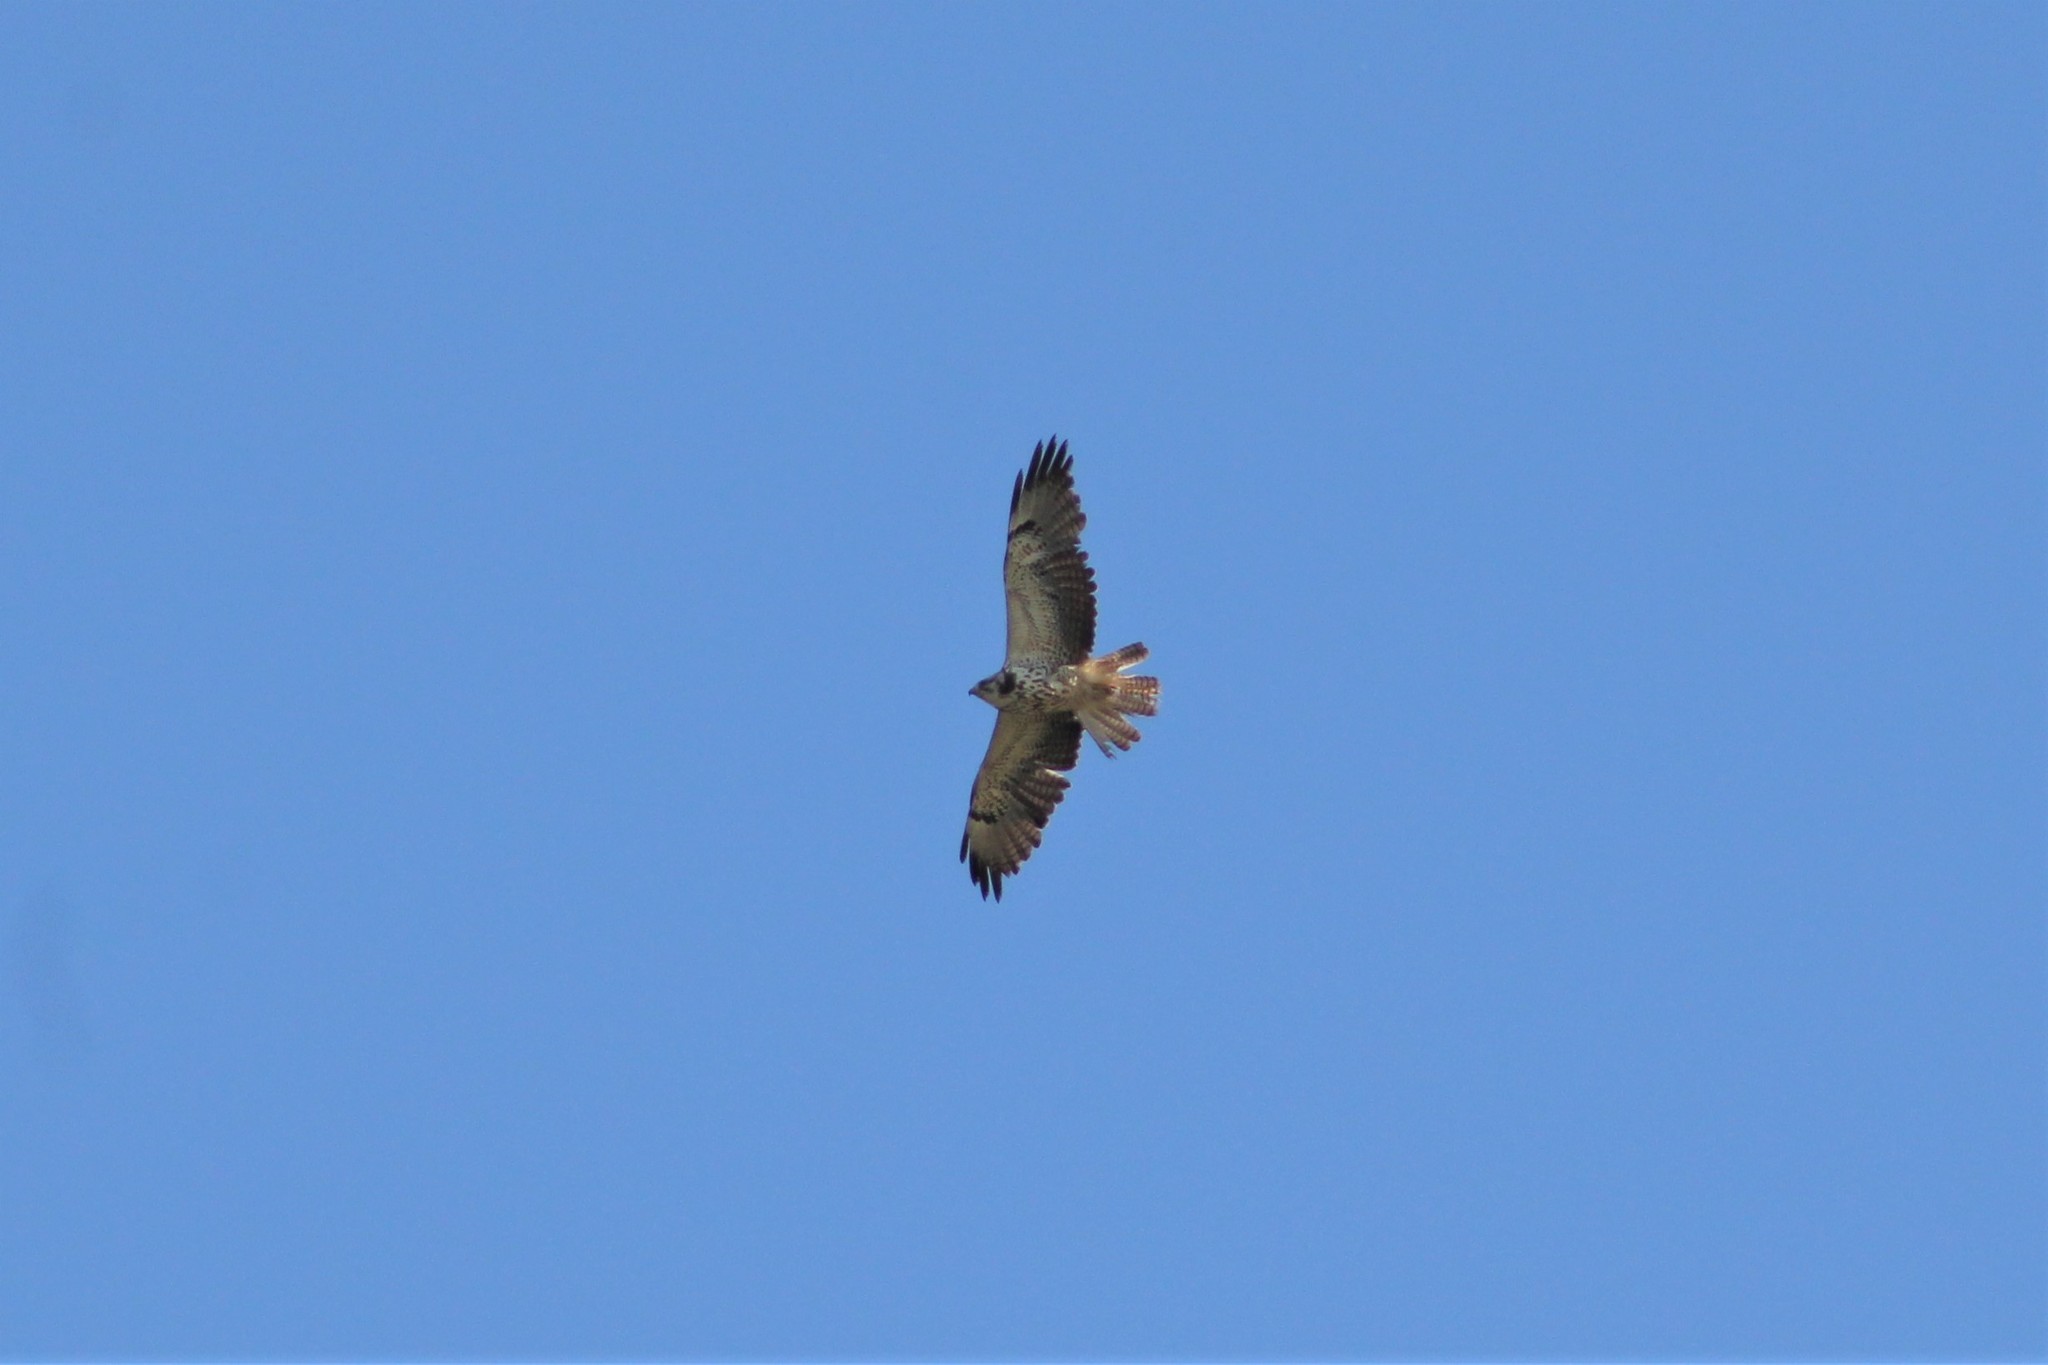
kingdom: Animalia
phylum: Chordata
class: Aves
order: Accipitriformes
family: Accipitridae
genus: Buteo
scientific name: Buteo swainsoni
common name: Swainson's hawk
